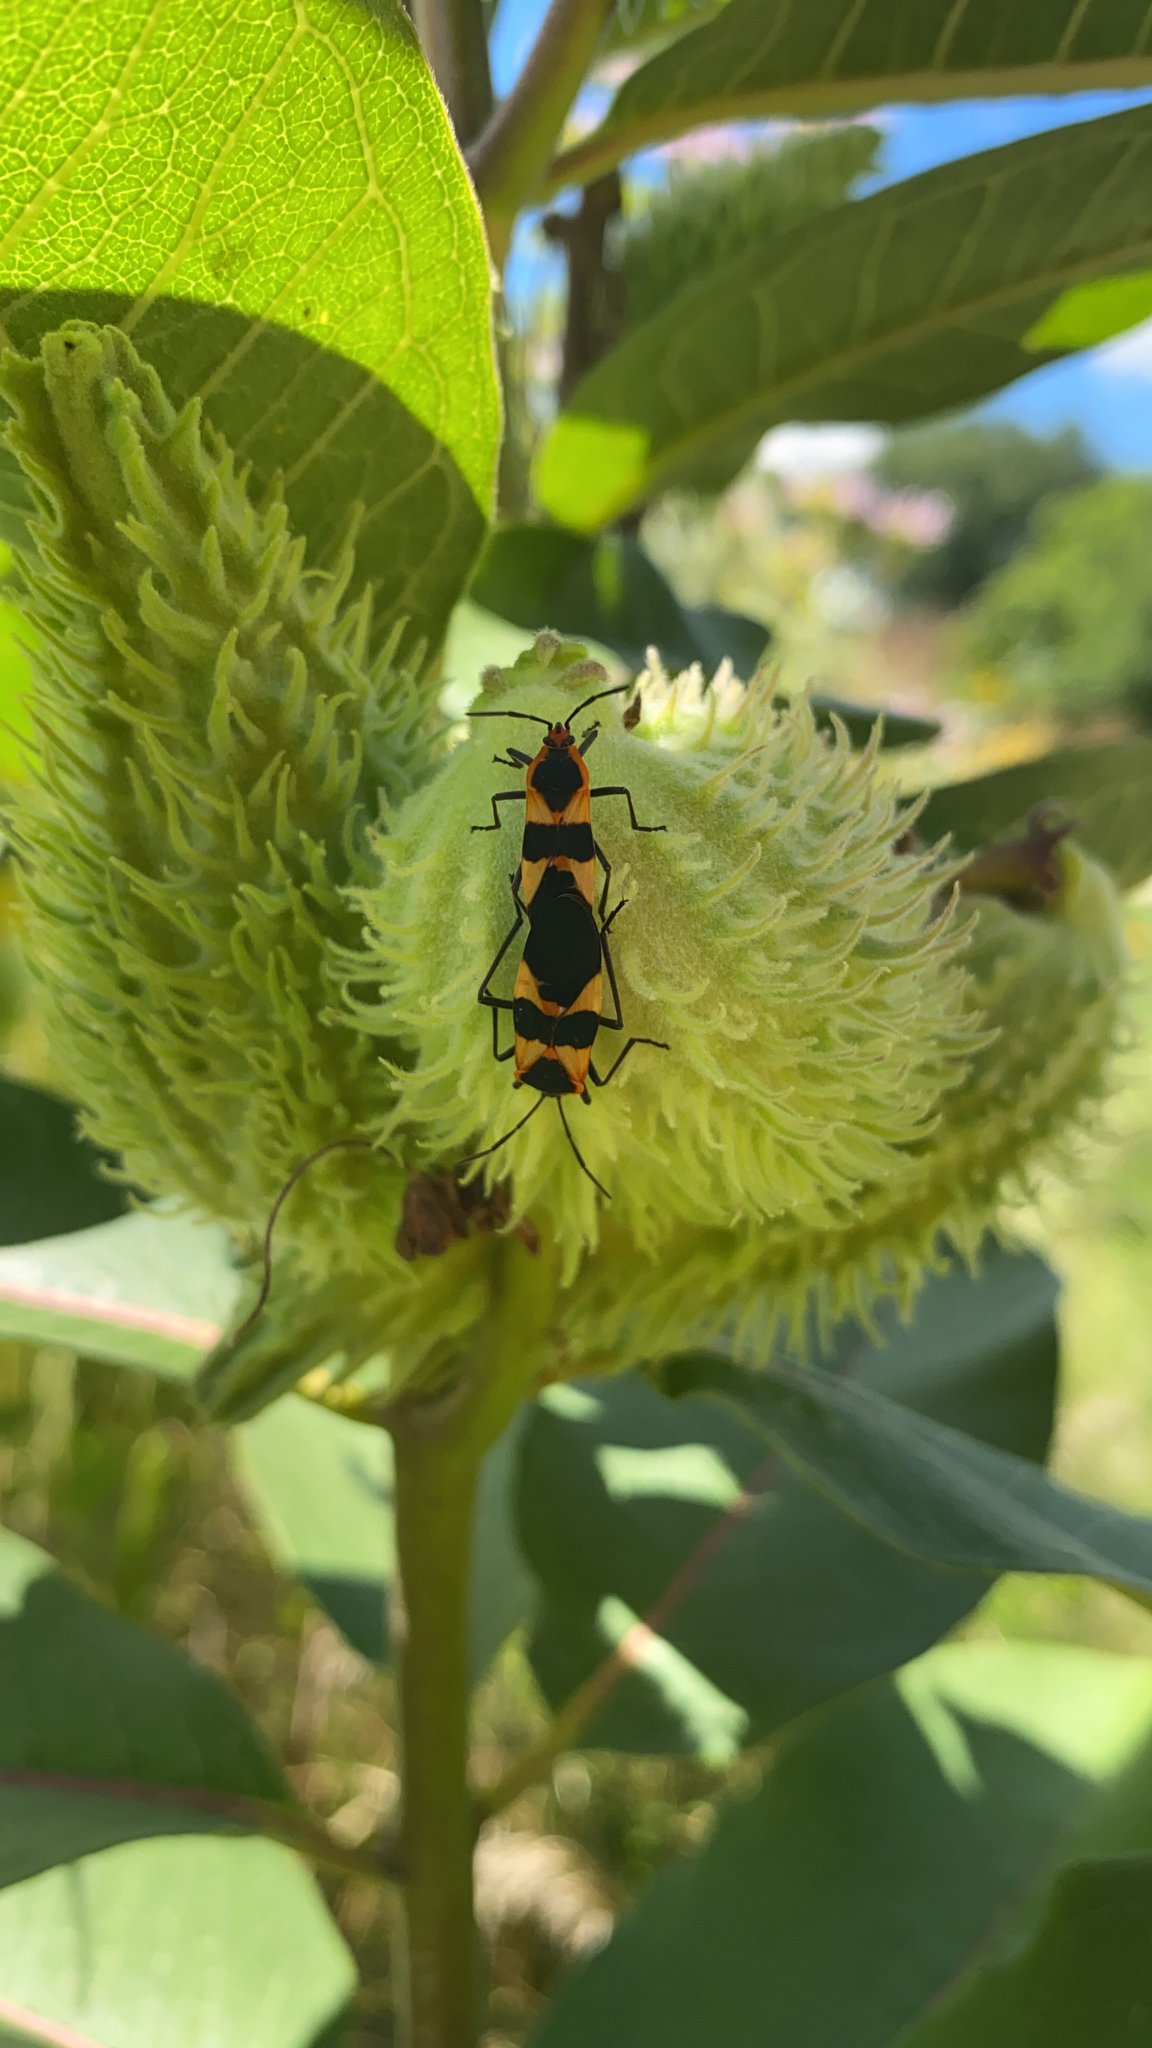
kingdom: Animalia
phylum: Arthropoda
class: Insecta
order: Hemiptera
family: Lygaeidae
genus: Oncopeltus
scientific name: Oncopeltus fasciatus
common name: Large milkweed bug
